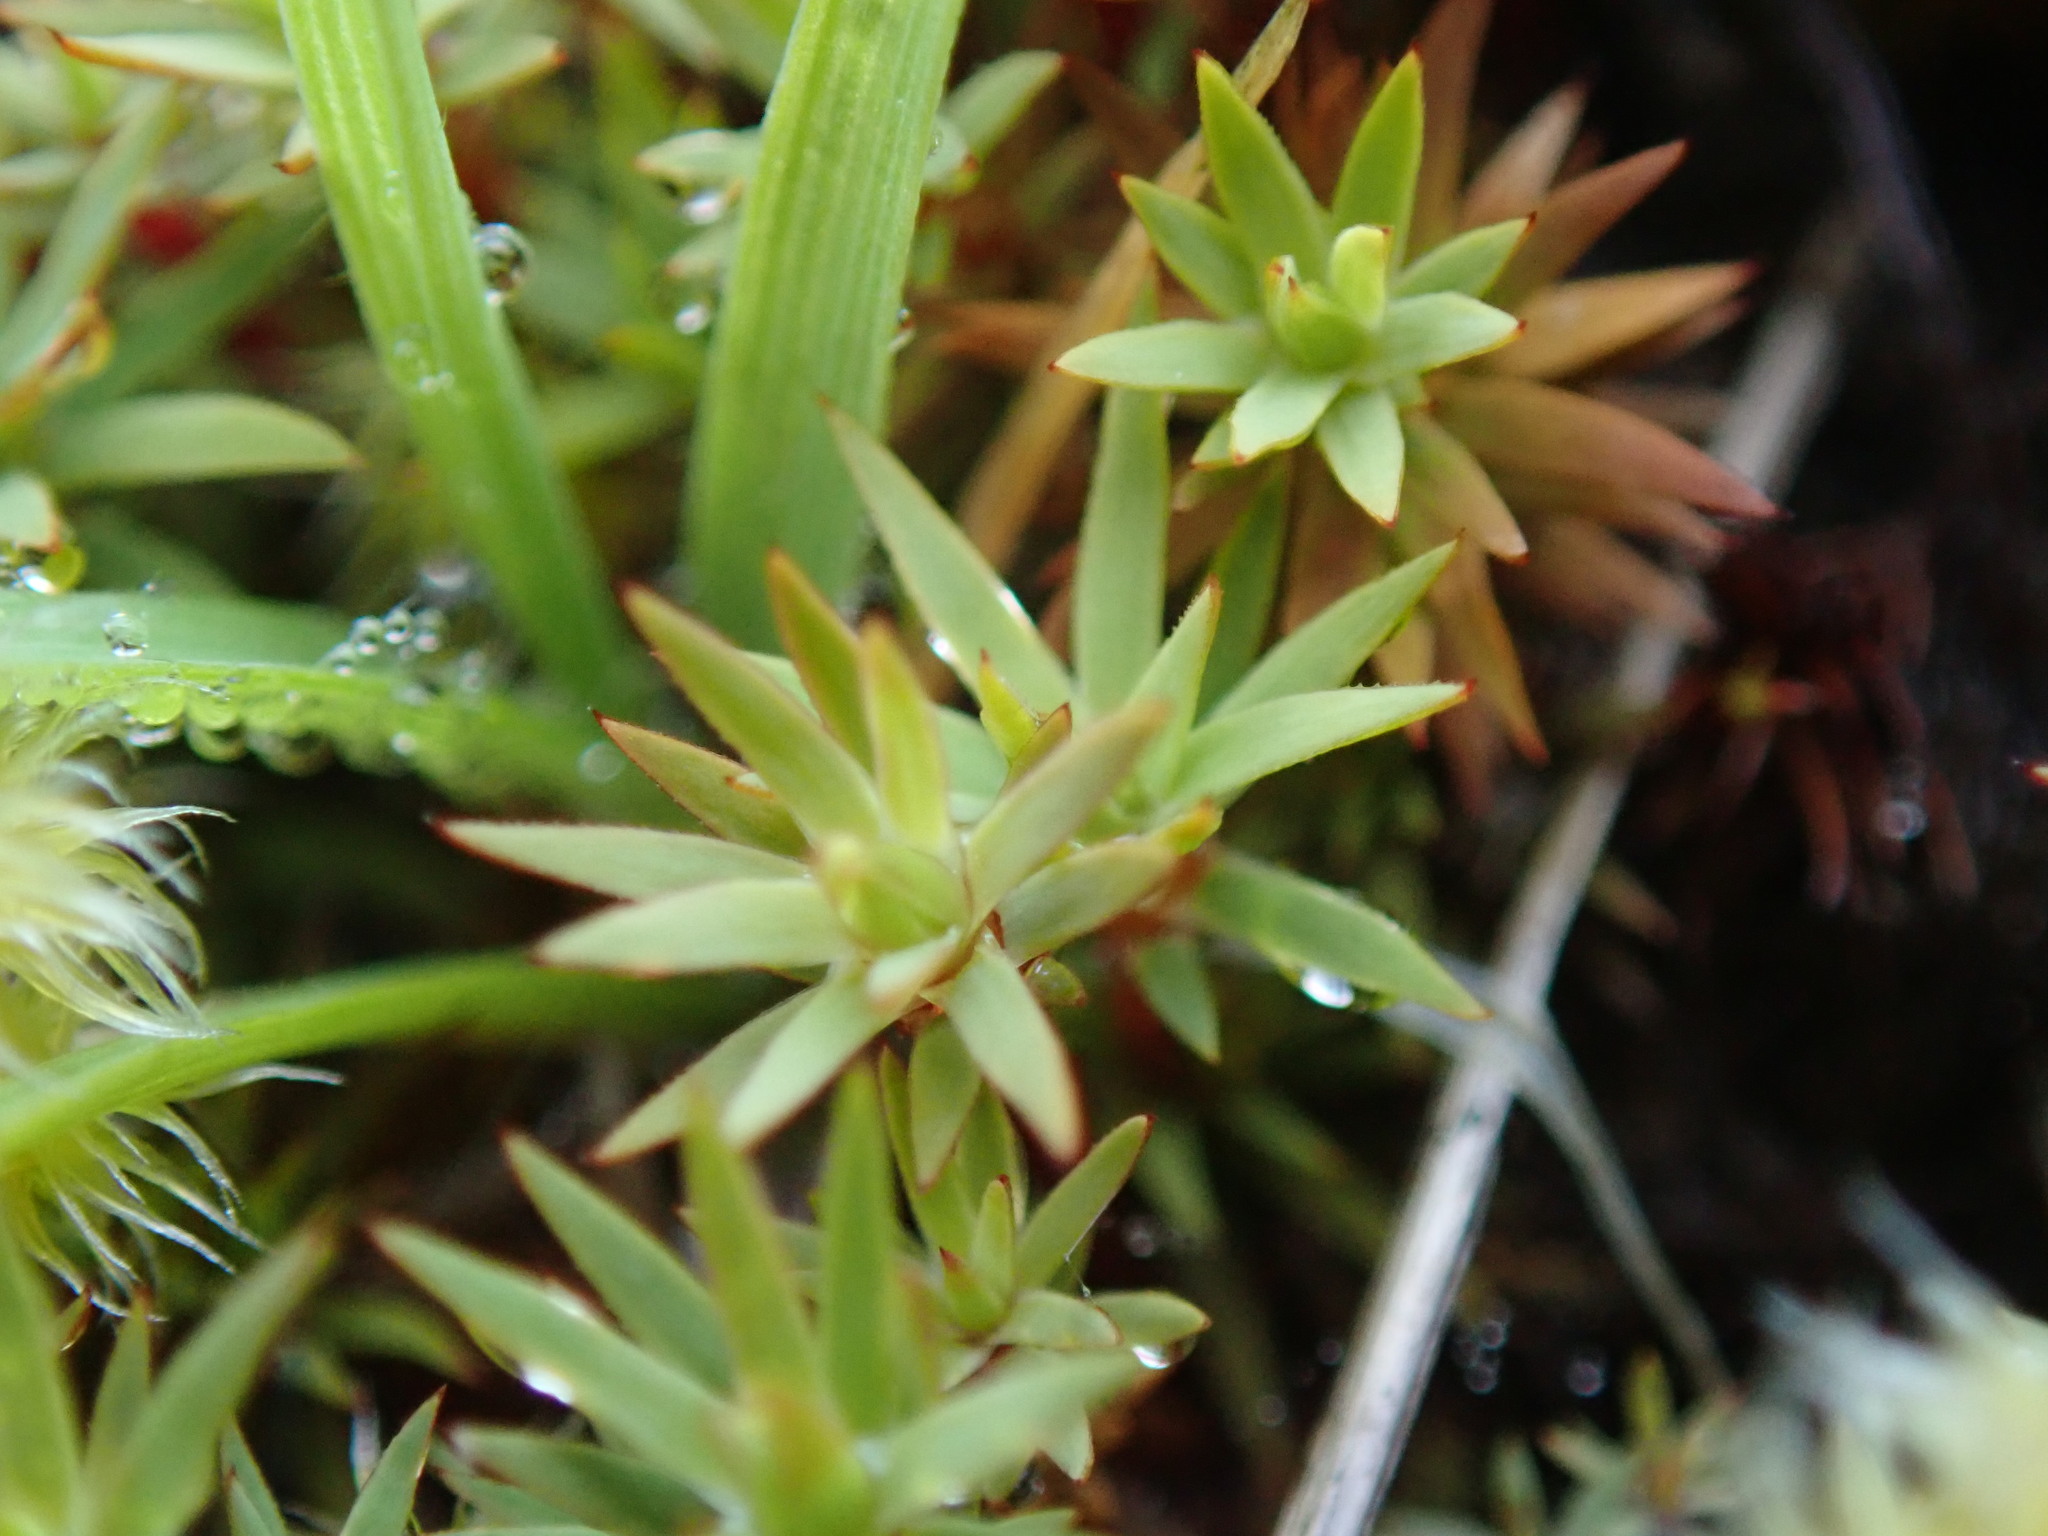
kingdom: Plantae
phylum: Bryophyta
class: Polytrichopsida
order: Polytrichales
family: Polytrichaceae
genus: Pogonatum
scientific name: Pogonatum urnigerum
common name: Urn hair moss
